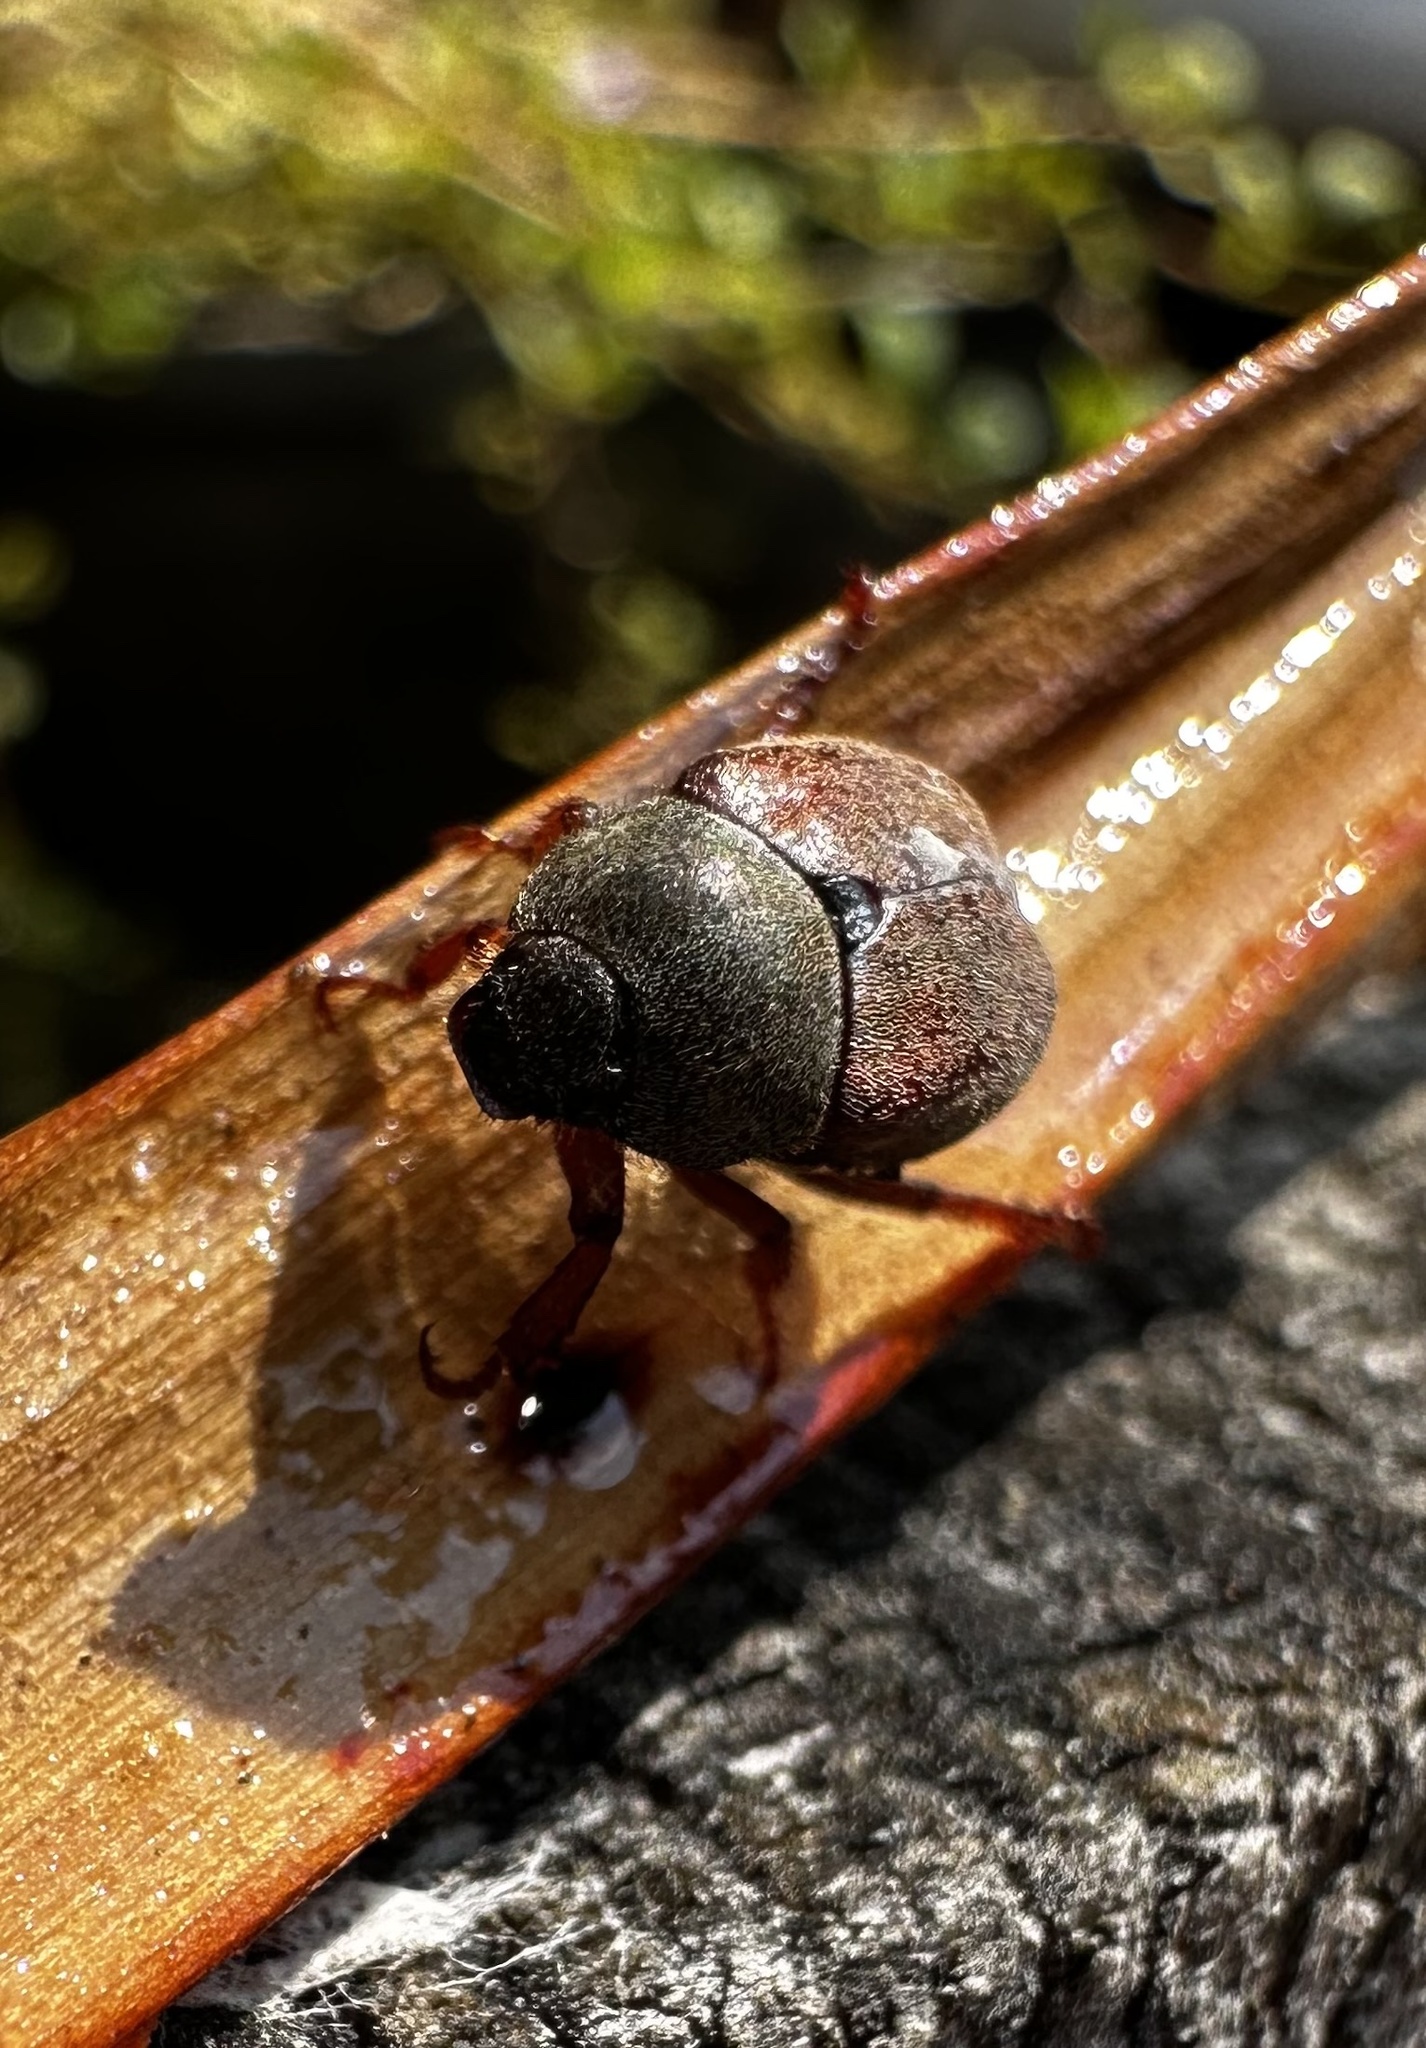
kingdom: Animalia
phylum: Arthropoda
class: Insecta
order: Coleoptera
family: Scarabaeidae
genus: Hoplia
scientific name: Hoplia philanthus
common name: Welsh chafer
